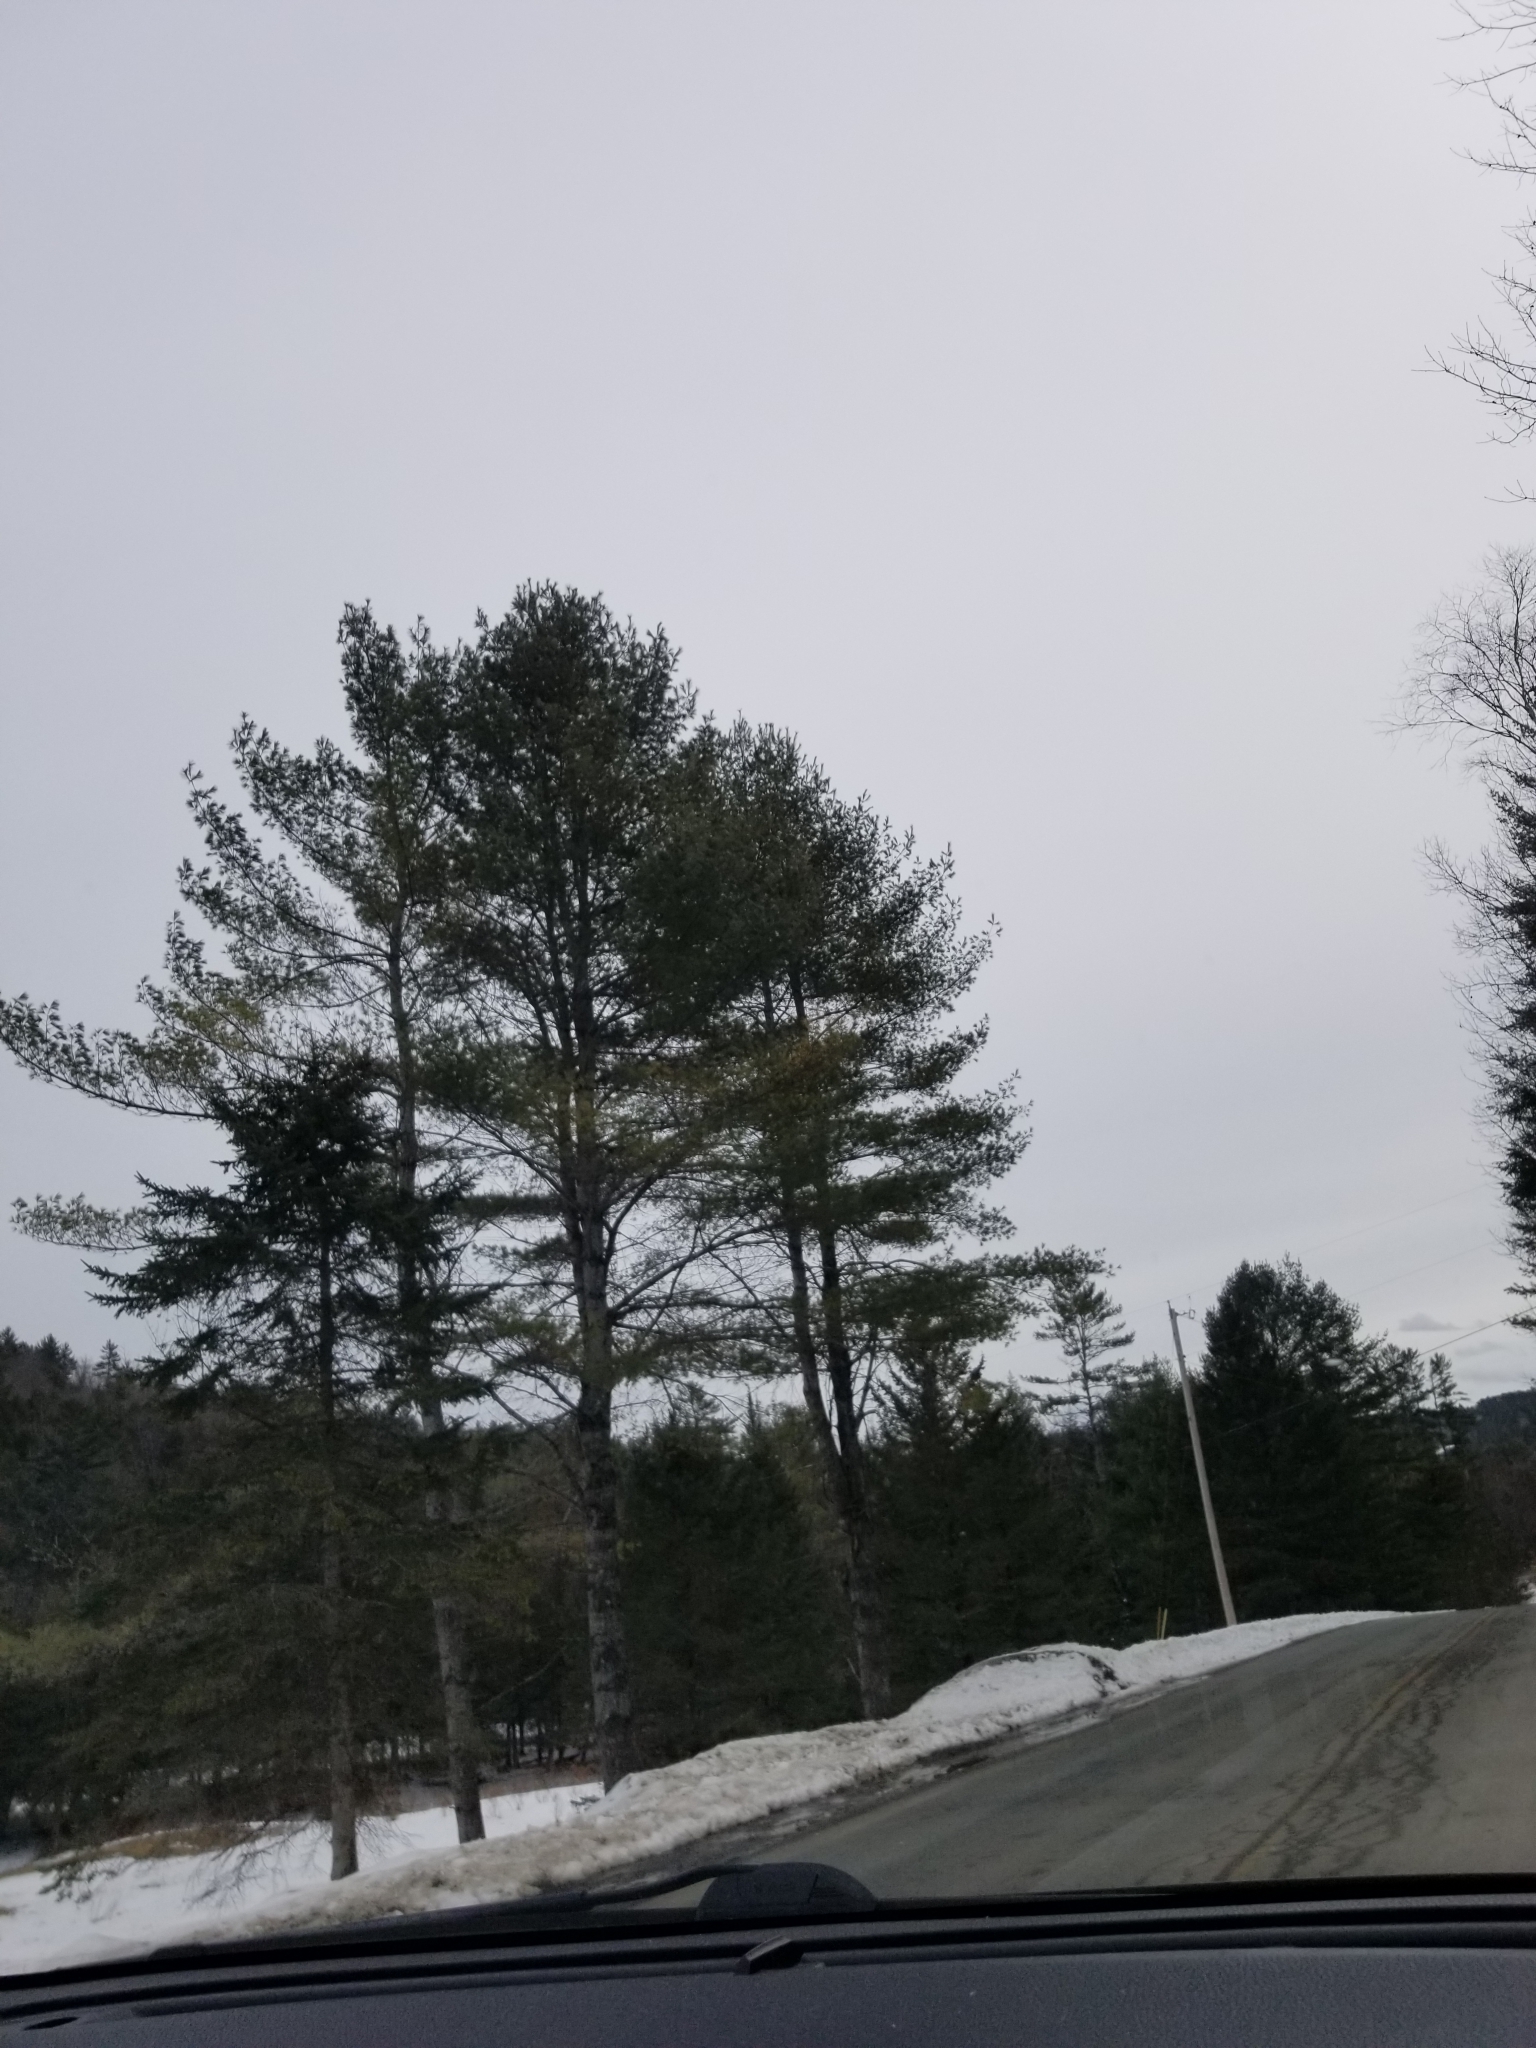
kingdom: Plantae
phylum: Tracheophyta
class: Pinopsida
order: Pinales
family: Pinaceae
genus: Pinus
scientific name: Pinus strobus
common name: Weymouth pine
